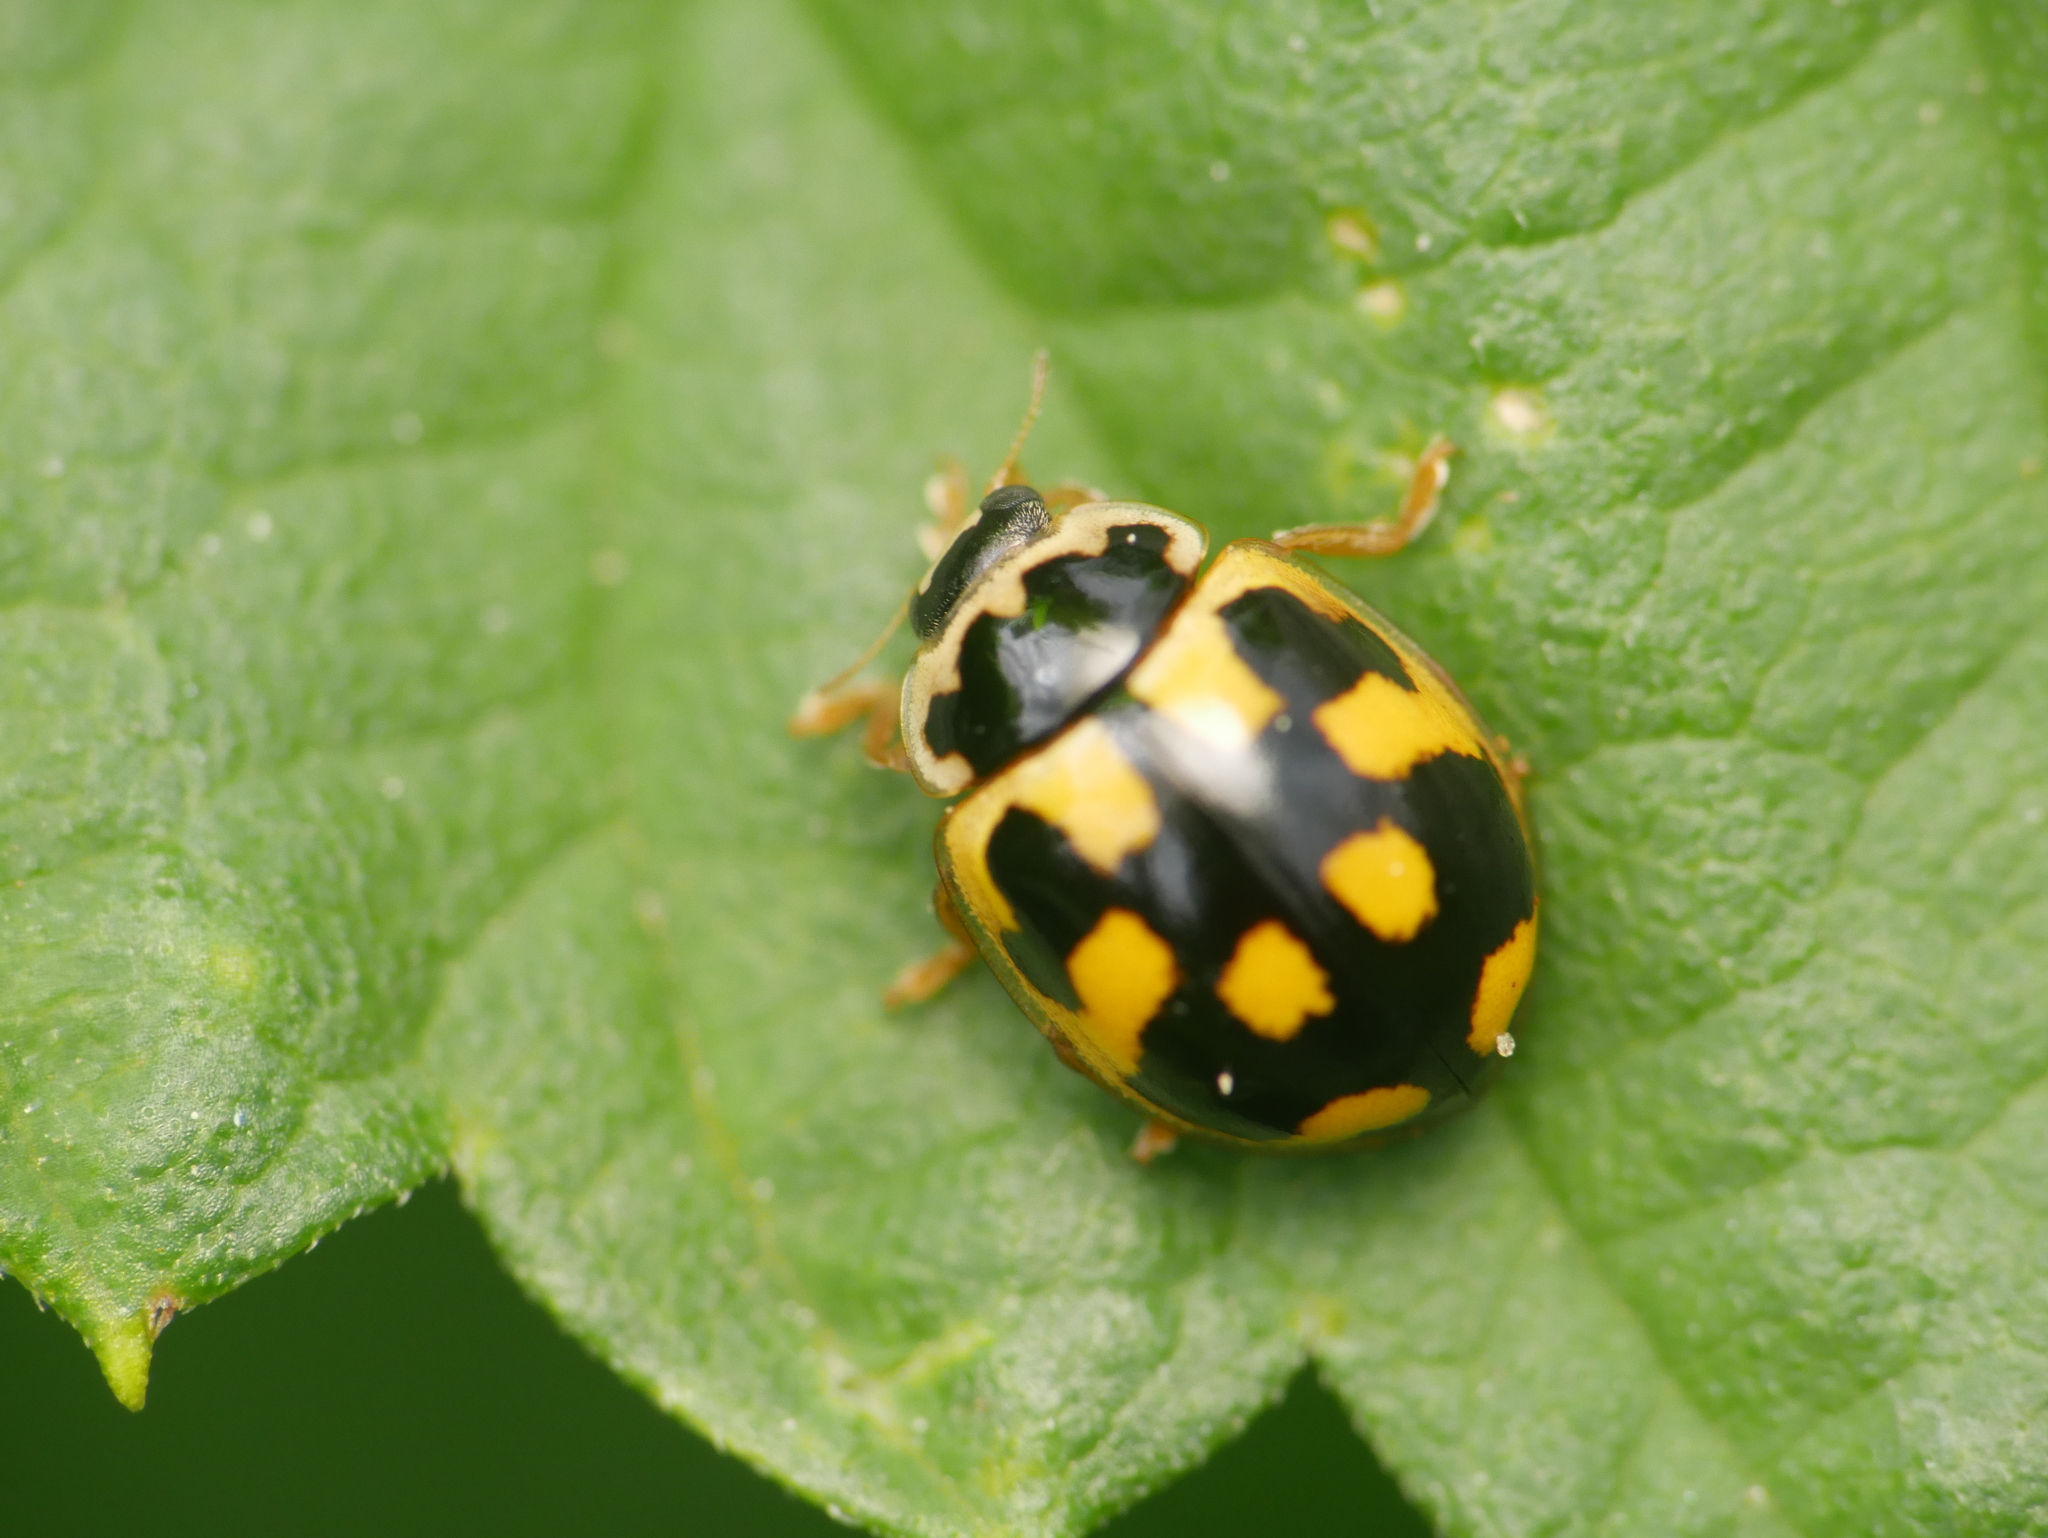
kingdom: Animalia
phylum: Arthropoda
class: Insecta
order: Coleoptera
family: Coccinellidae
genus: Propylaea
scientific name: Propylaea quatuordecimpunctata
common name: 14-spotted ladybird beetle
